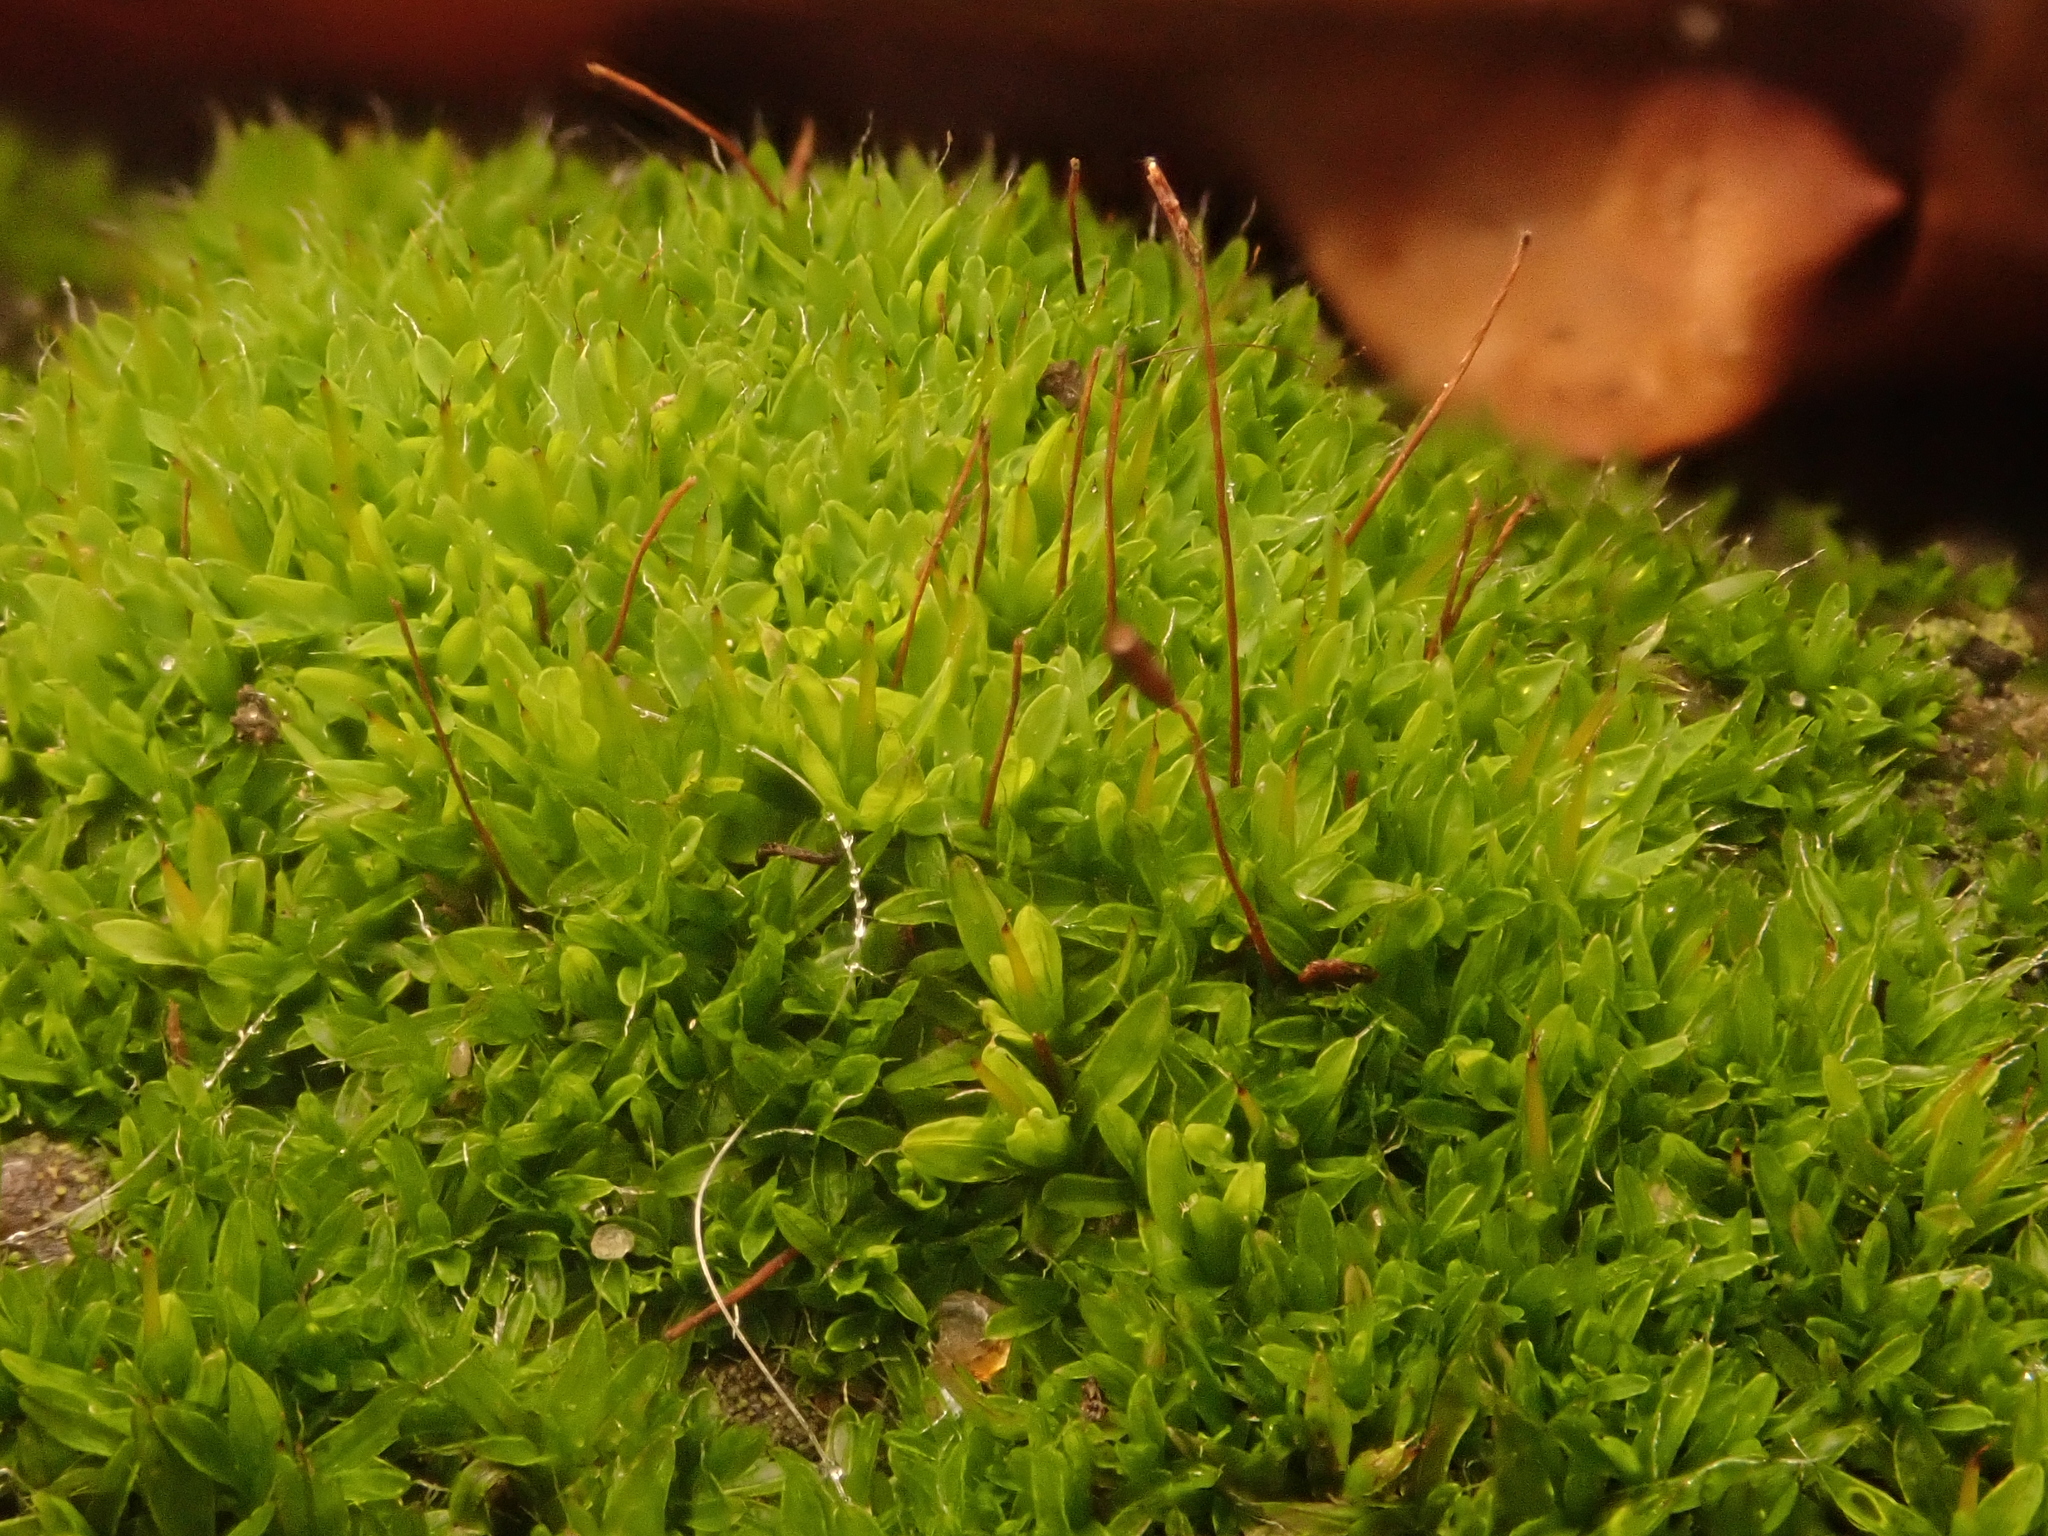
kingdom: Plantae
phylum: Bryophyta
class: Bryopsida
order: Pottiales
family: Pottiaceae
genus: Tortula
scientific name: Tortula muralis
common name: Wall screw-moss
